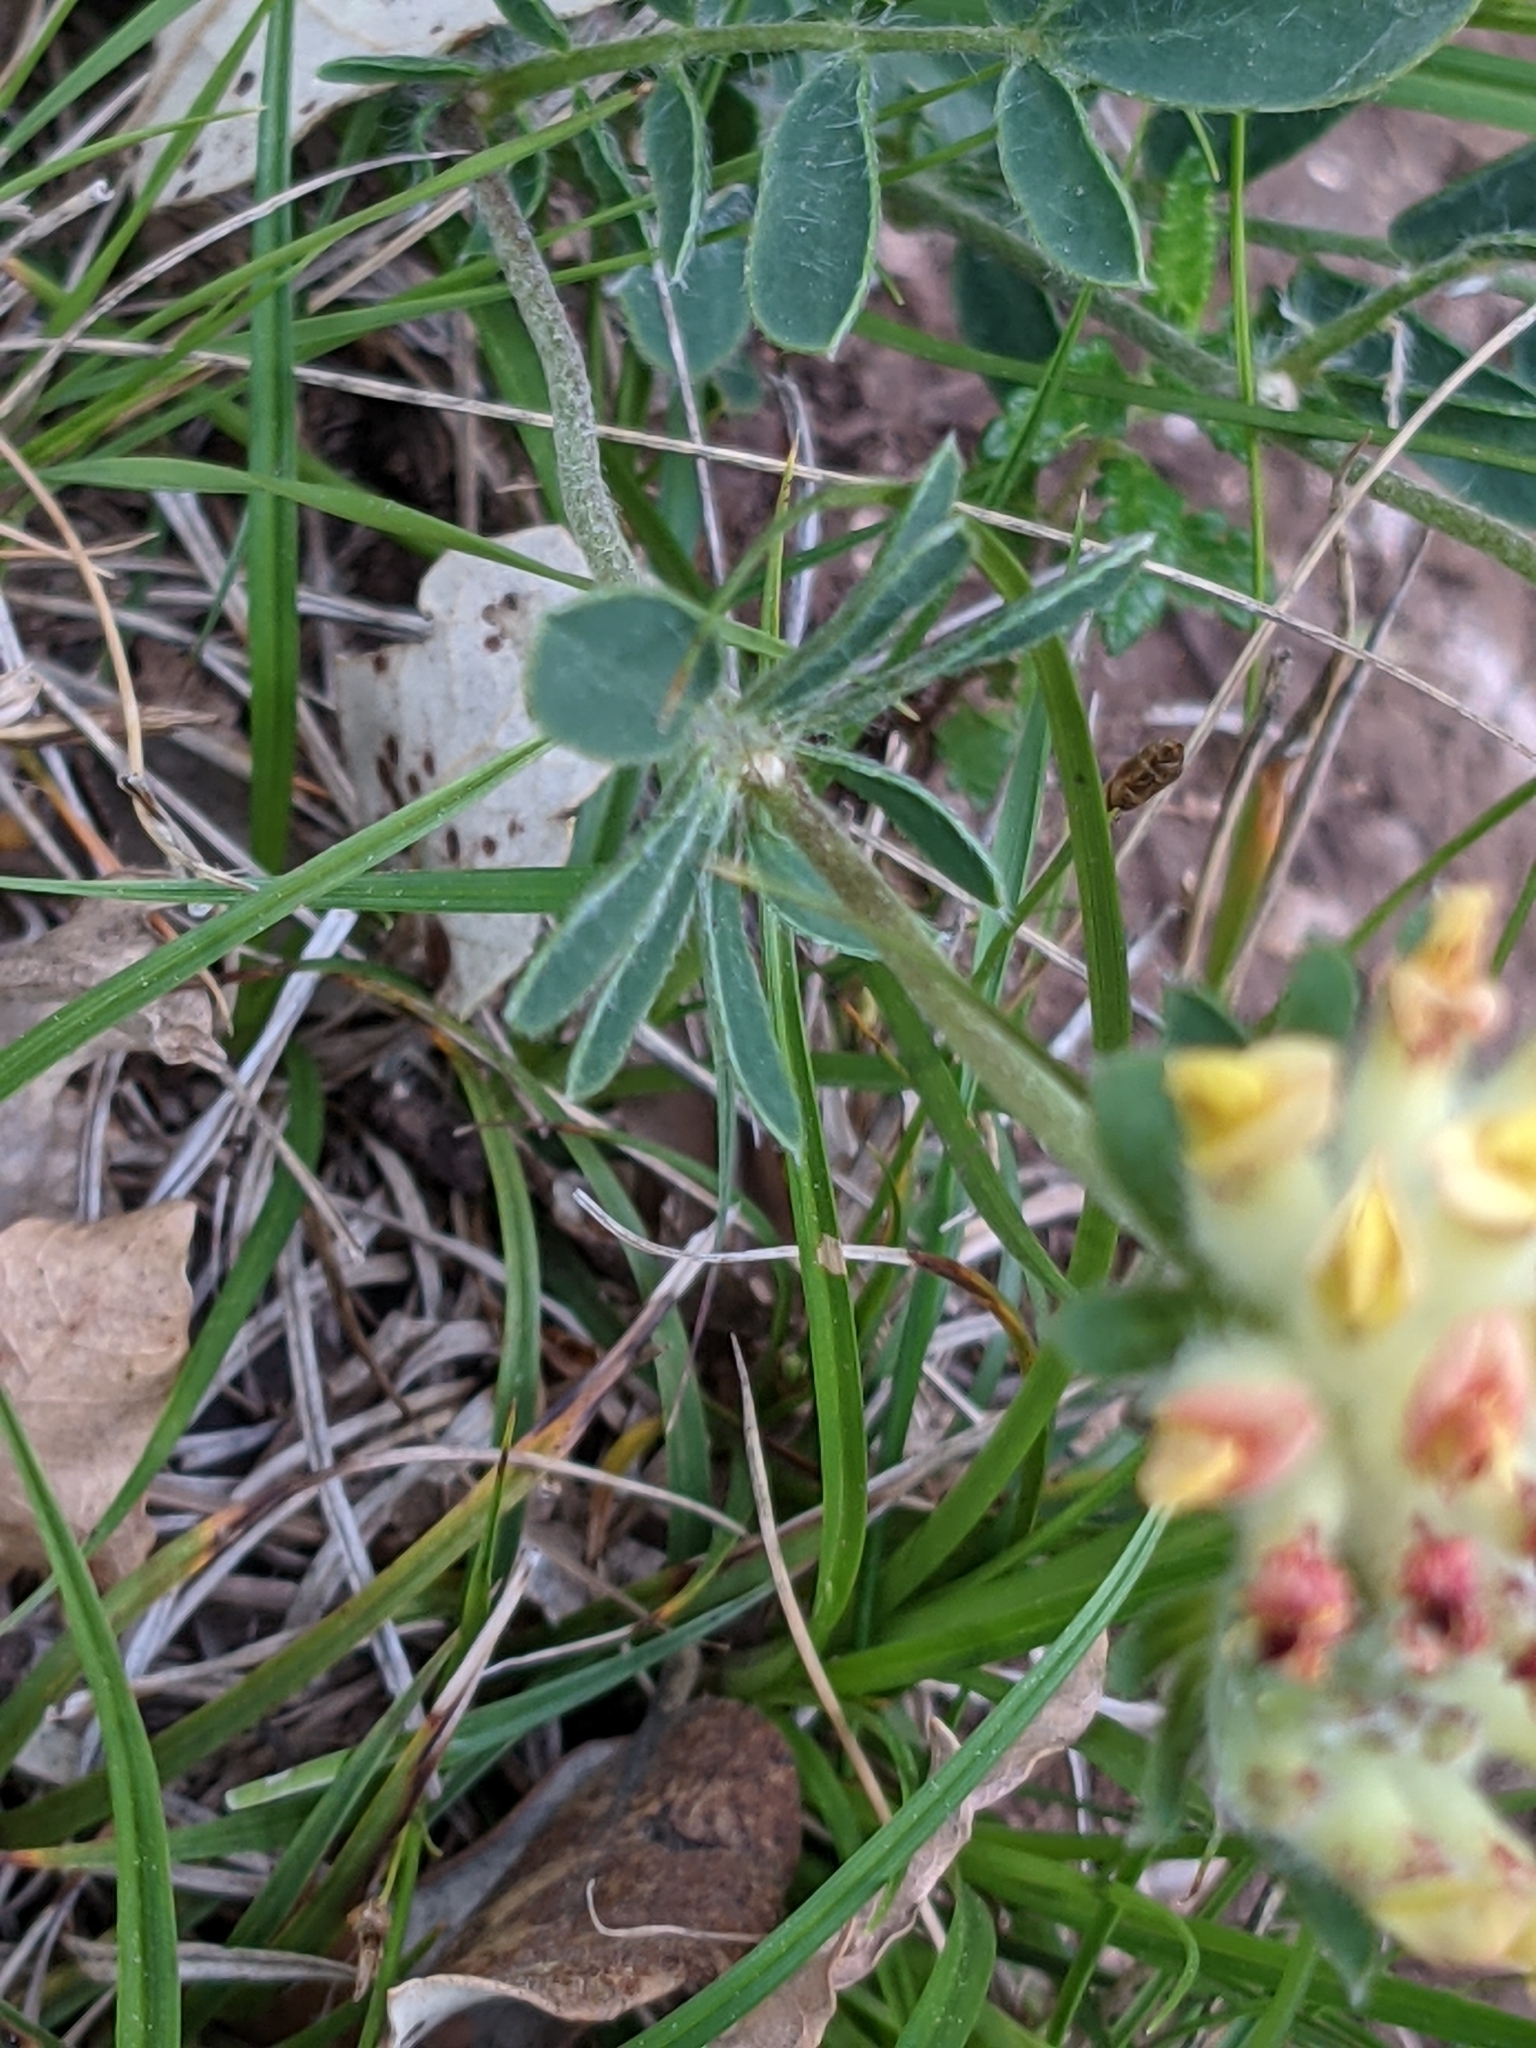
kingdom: Plantae
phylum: Tracheophyta
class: Magnoliopsida
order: Fabales
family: Fabaceae
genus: Anthyllis
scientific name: Anthyllis vulneraria
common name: Kidney vetch
